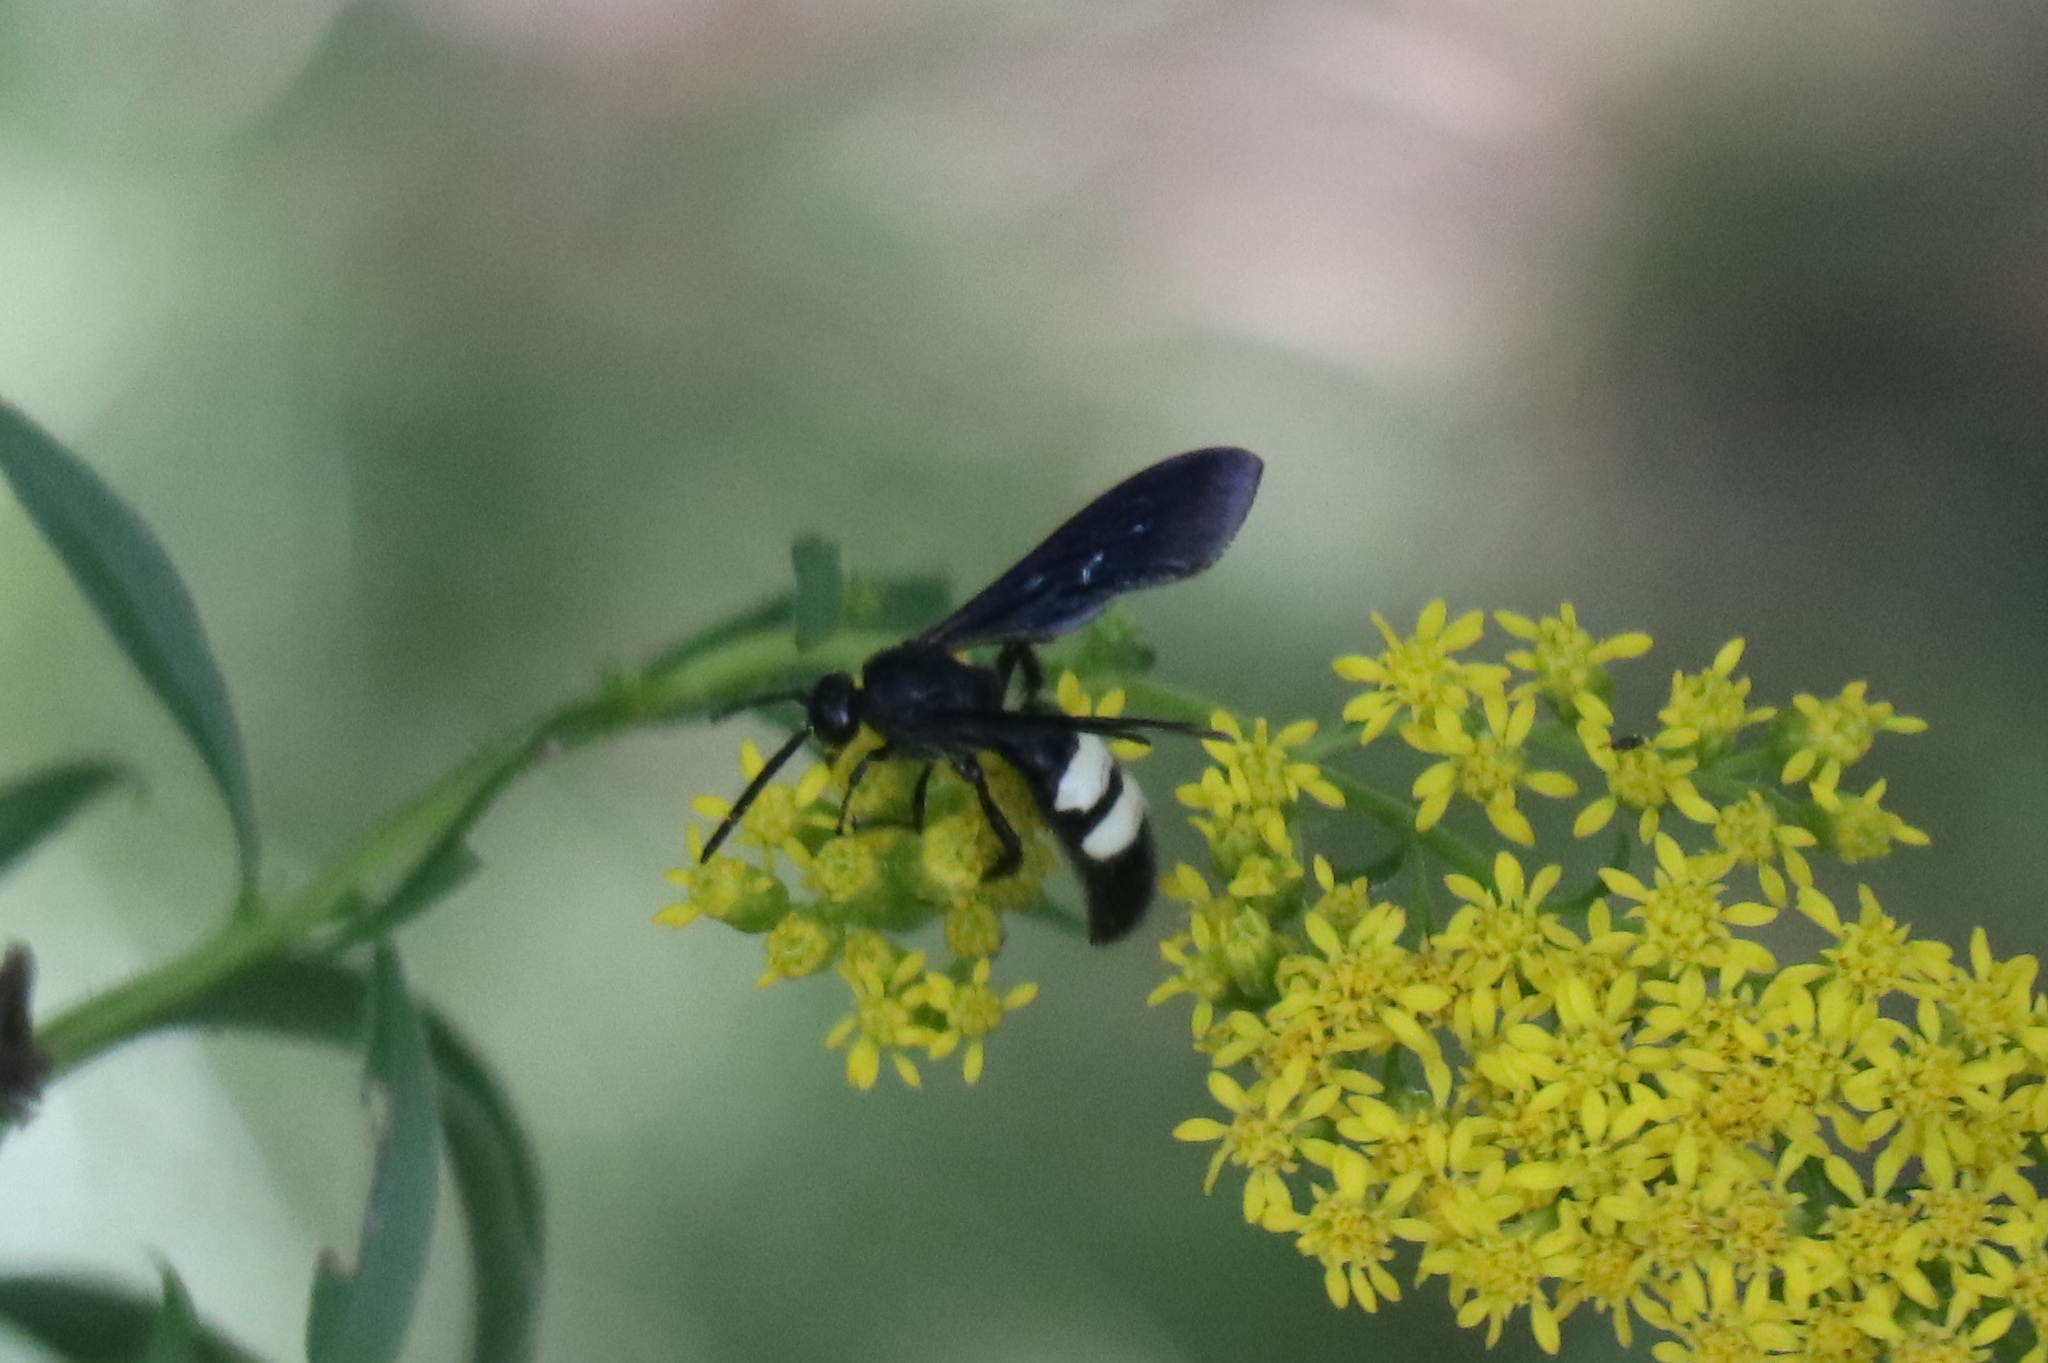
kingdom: Animalia
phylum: Arthropoda
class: Insecta
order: Hymenoptera
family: Scoliidae
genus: Scolia
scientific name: Scolia bicincta
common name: Double-banded scoliid wasp
